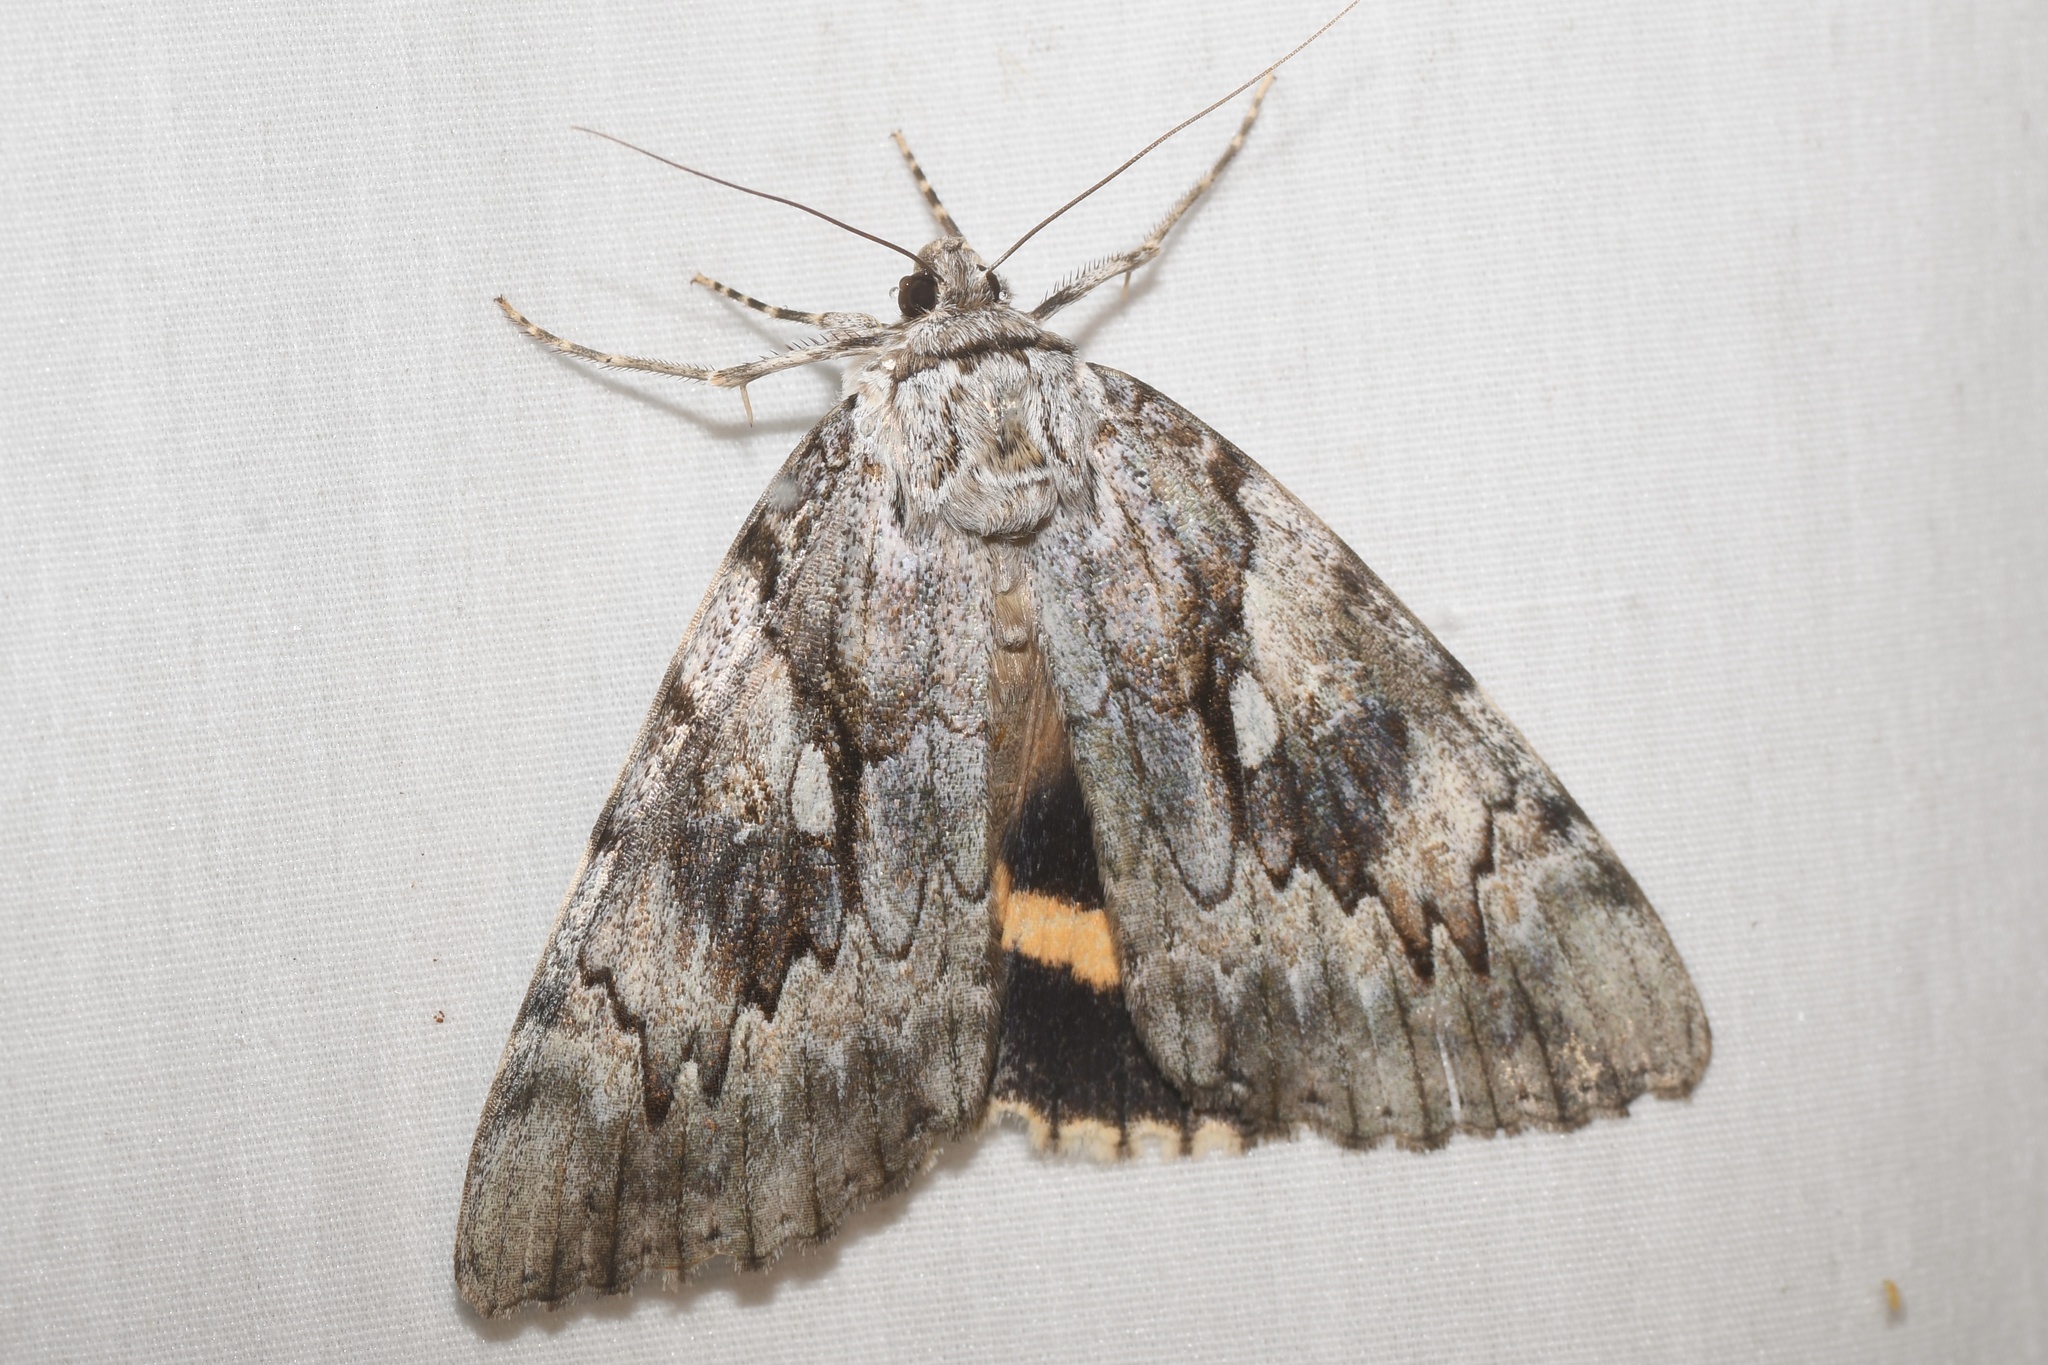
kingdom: Animalia
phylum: Arthropoda
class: Insecta
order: Lepidoptera
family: Erebidae
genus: Catocala
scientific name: Catocala cerogama
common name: Yellow banded underwing
